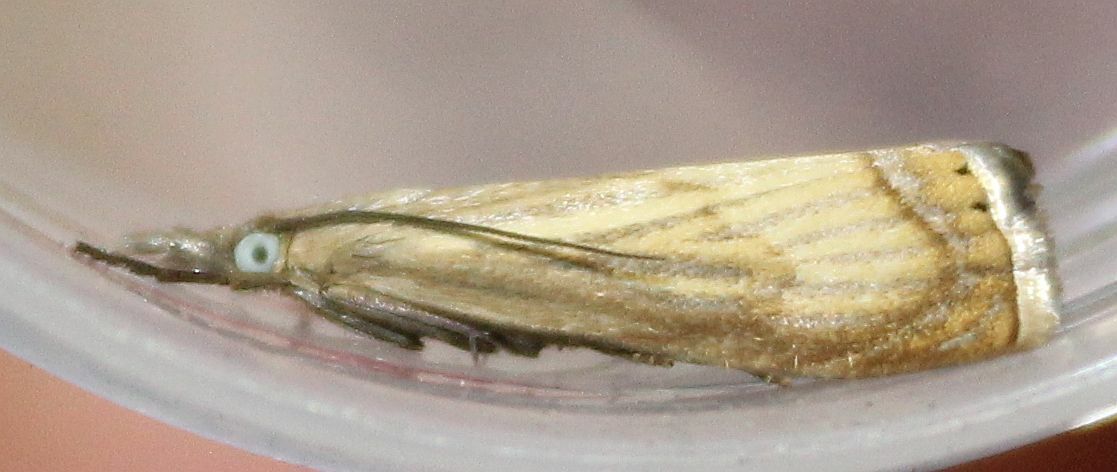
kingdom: Animalia
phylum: Arthropoda
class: Insecta
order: Lepidoptera
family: Crambidae
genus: Chrysoteuchia
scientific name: Chrysoteuchia culmella
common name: Garden grass-veneer
